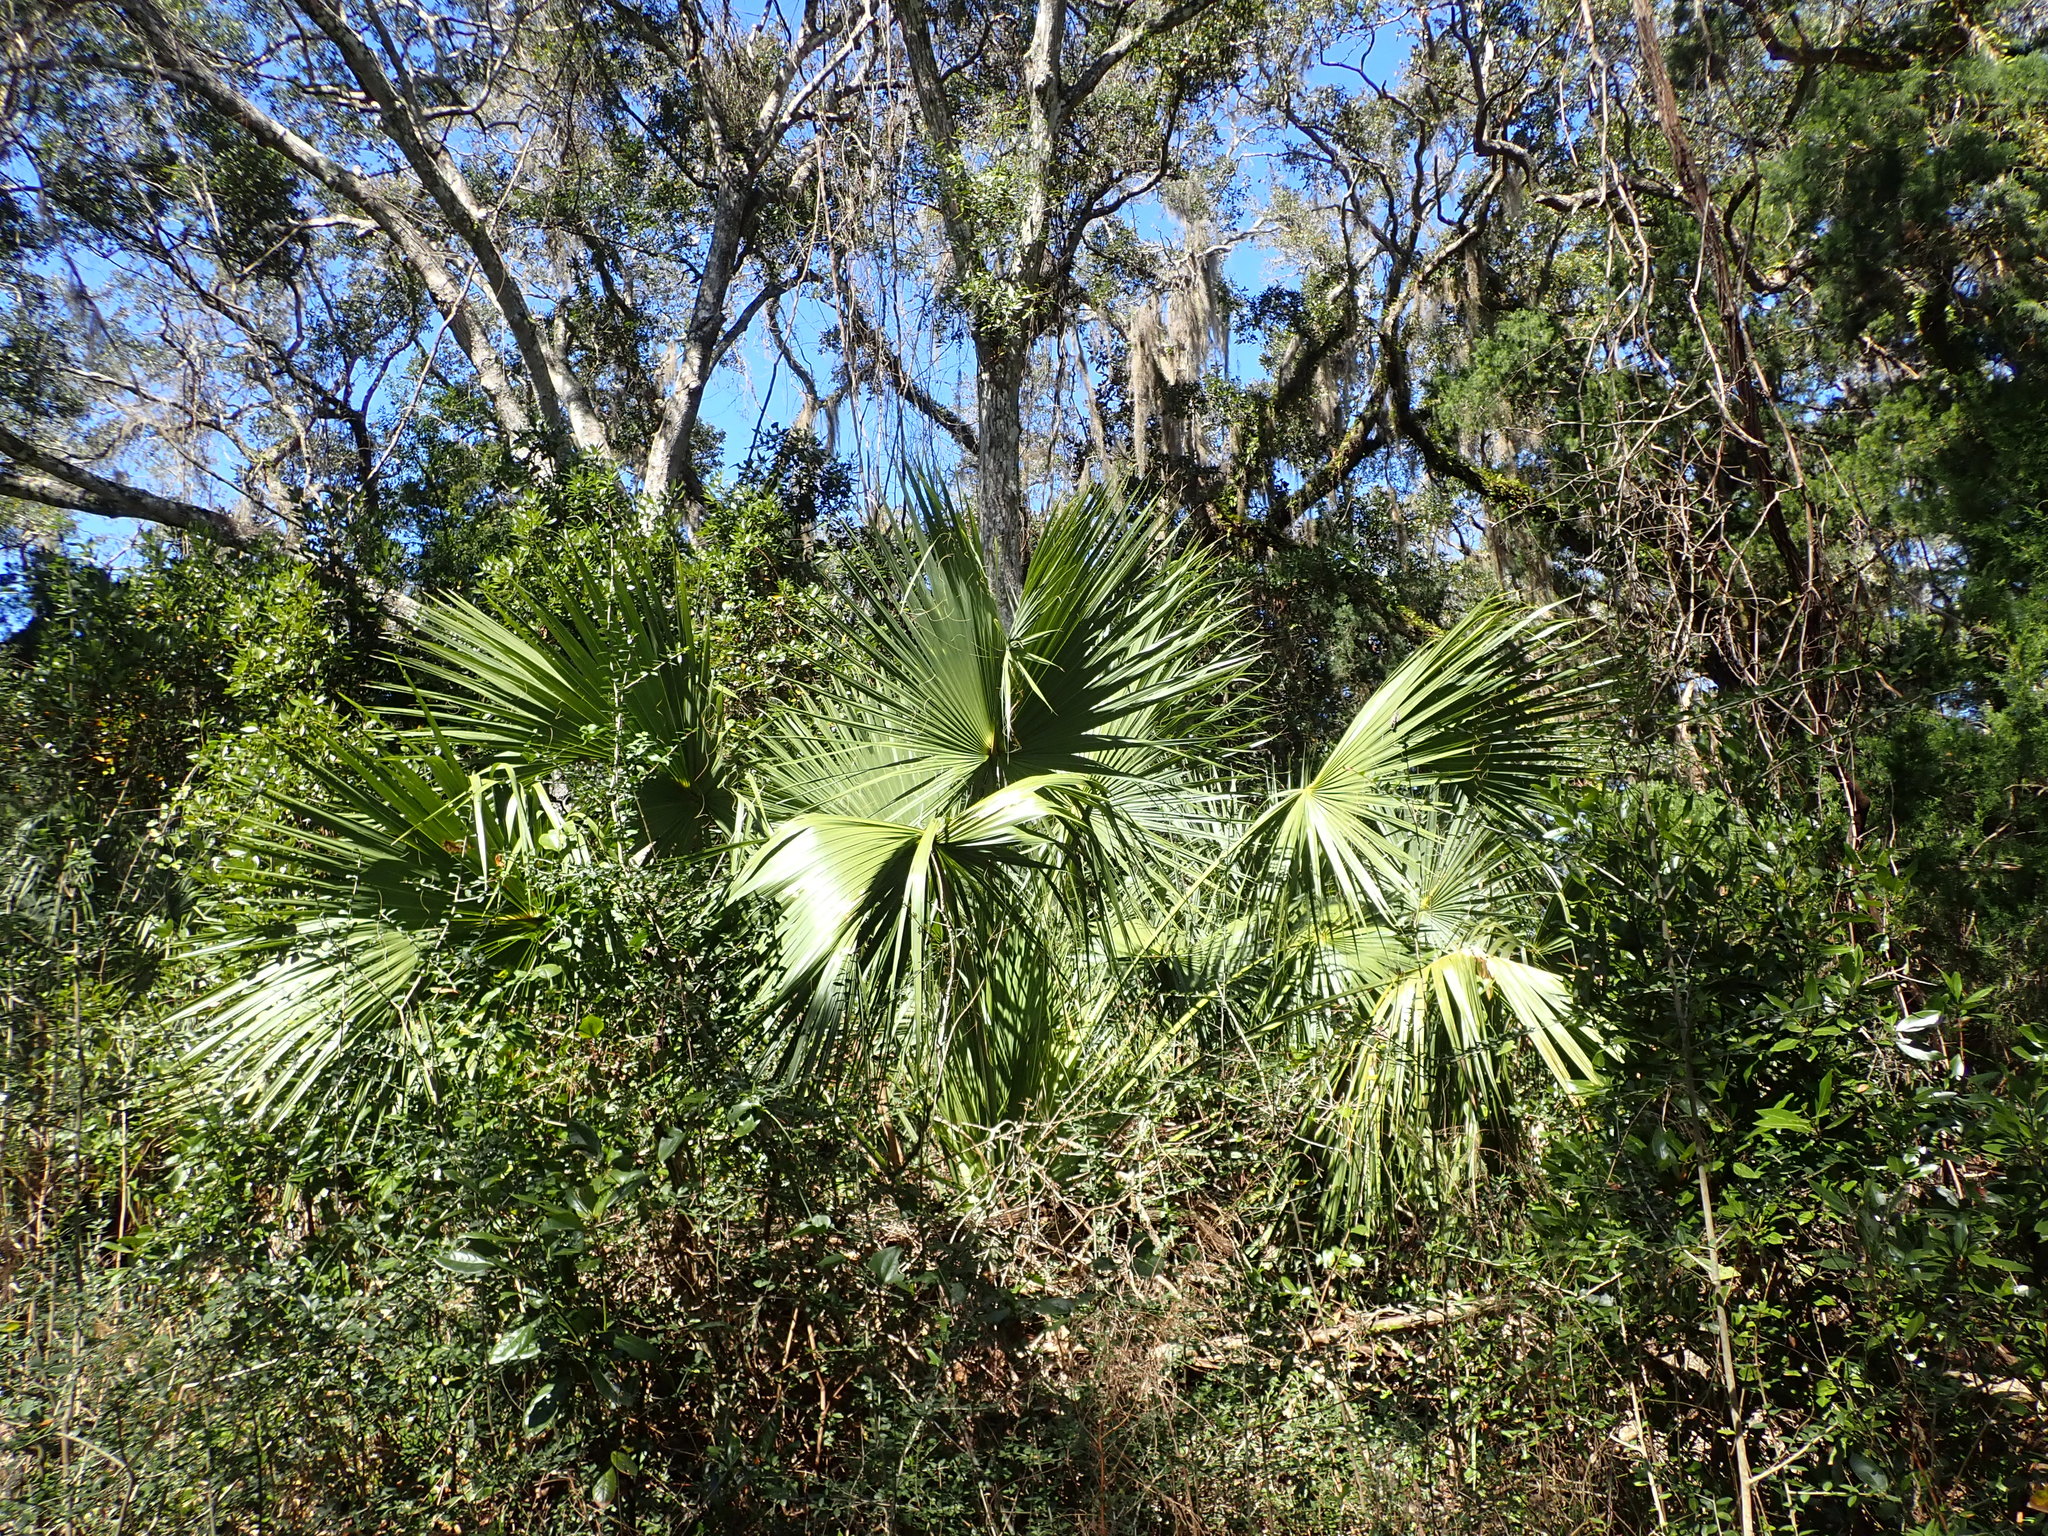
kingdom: Plantae
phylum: Tracheophyta
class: Liliopsida
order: Arecales
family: Arecaceae
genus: Sabal
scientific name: Sabal palmetto
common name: Blue palmetto
